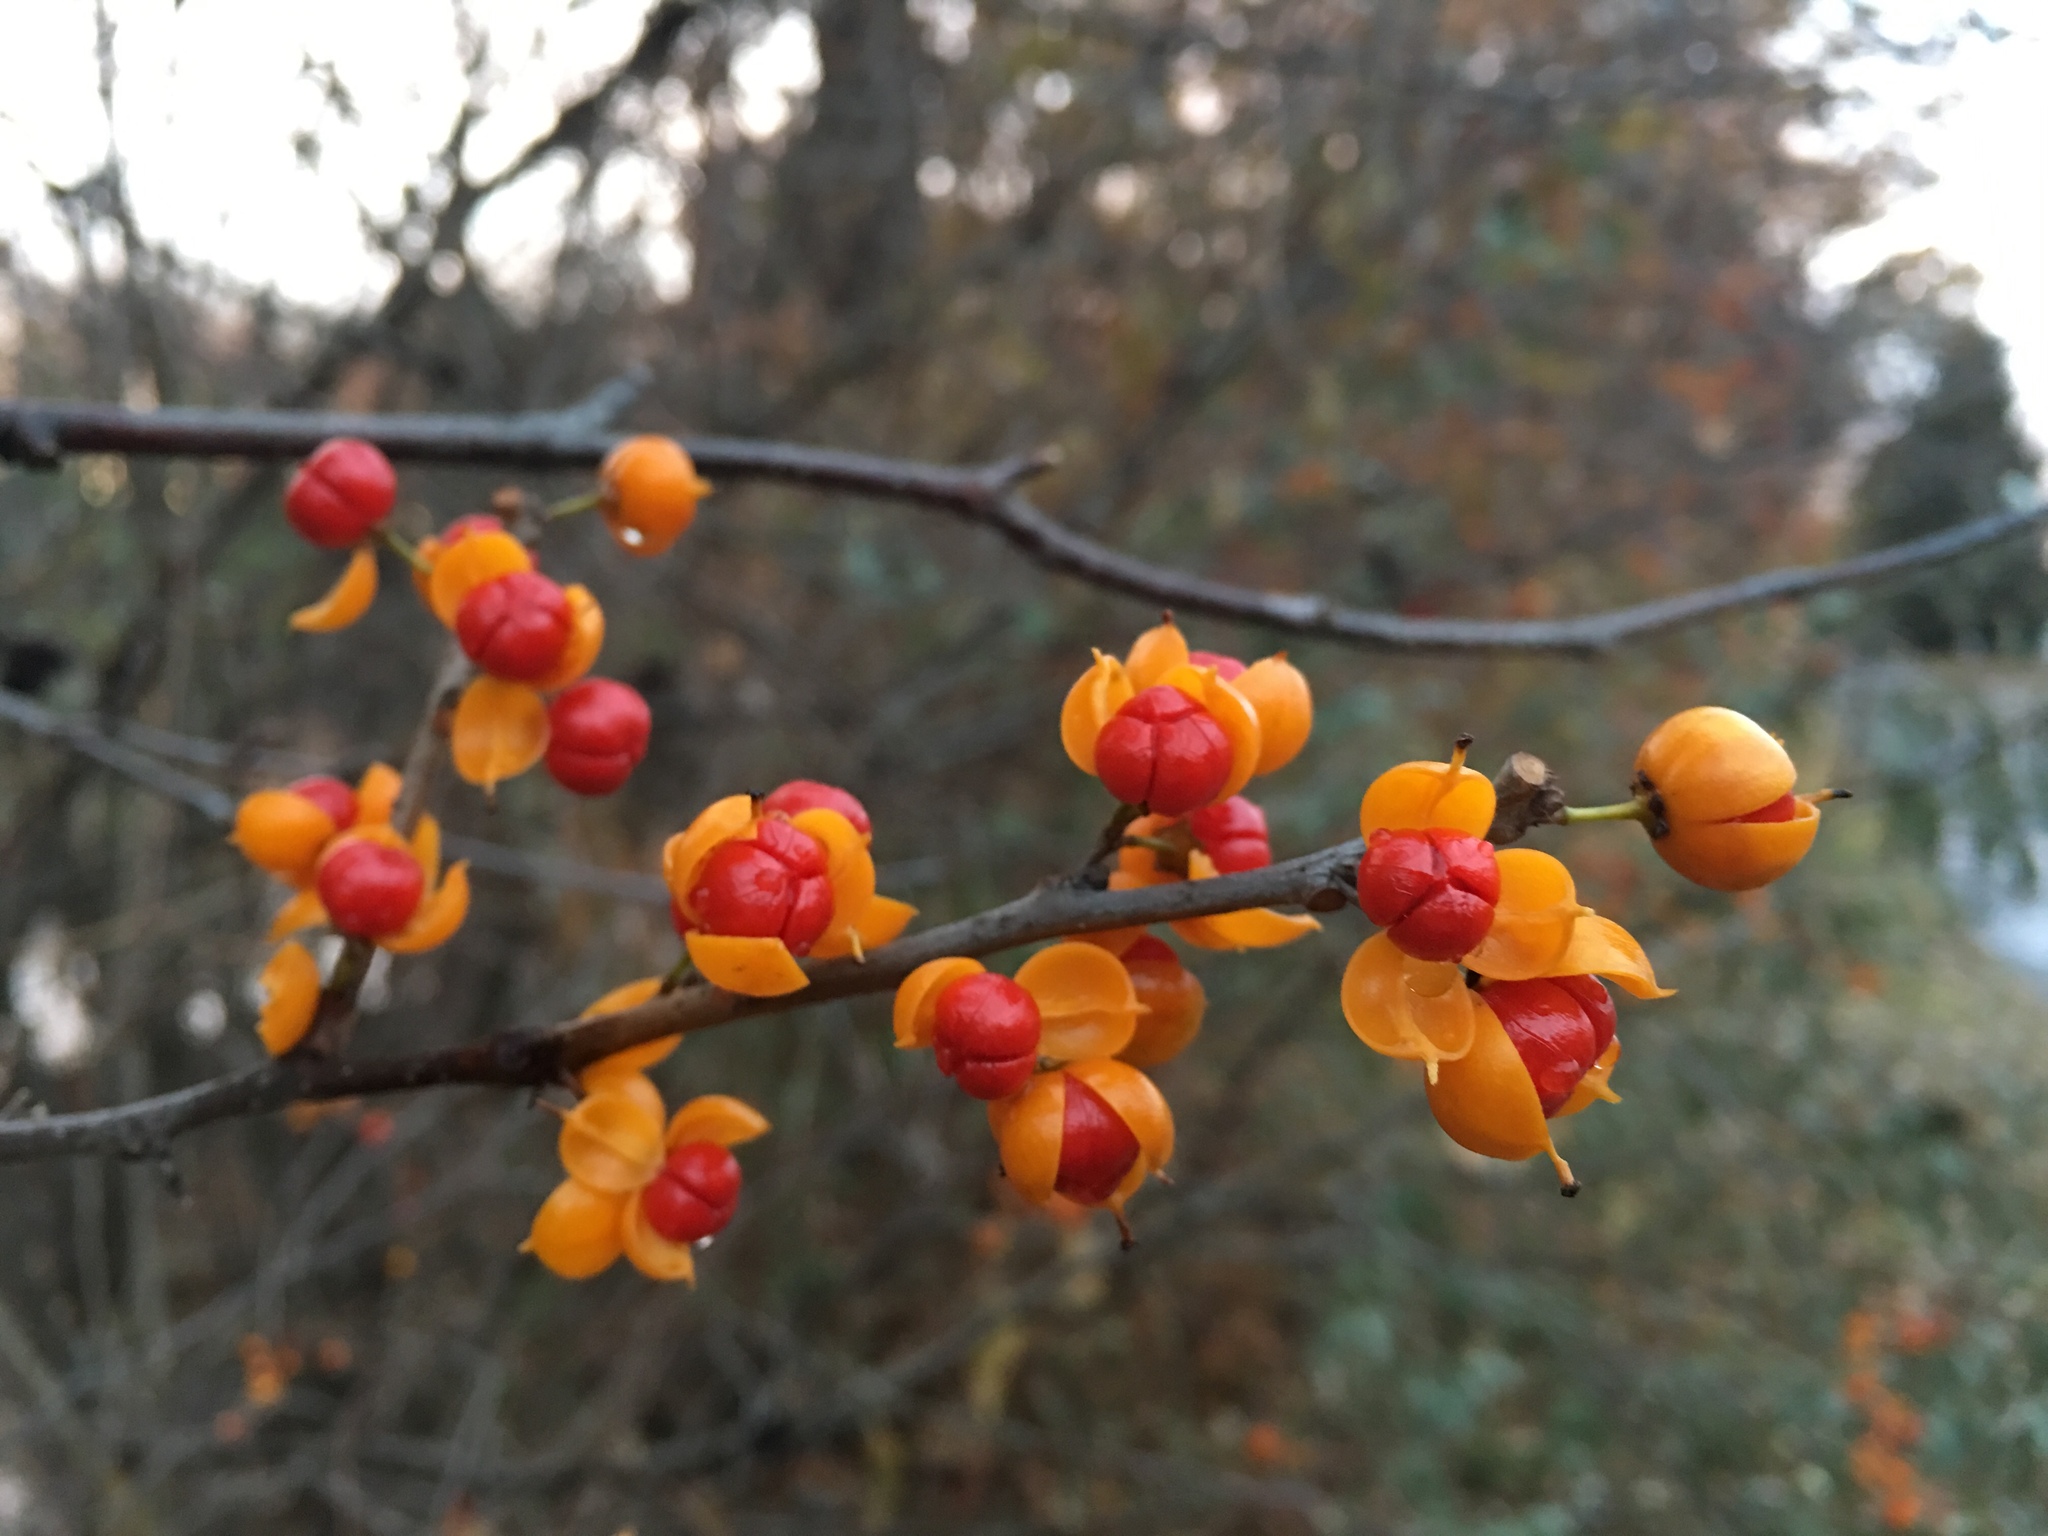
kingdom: Plantae
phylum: Tracheophyta
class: Magnoliopsida
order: Celastrales
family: Celastraceae
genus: Celastrus
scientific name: Celastrus orbiculatus
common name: Oriental bittersweet
